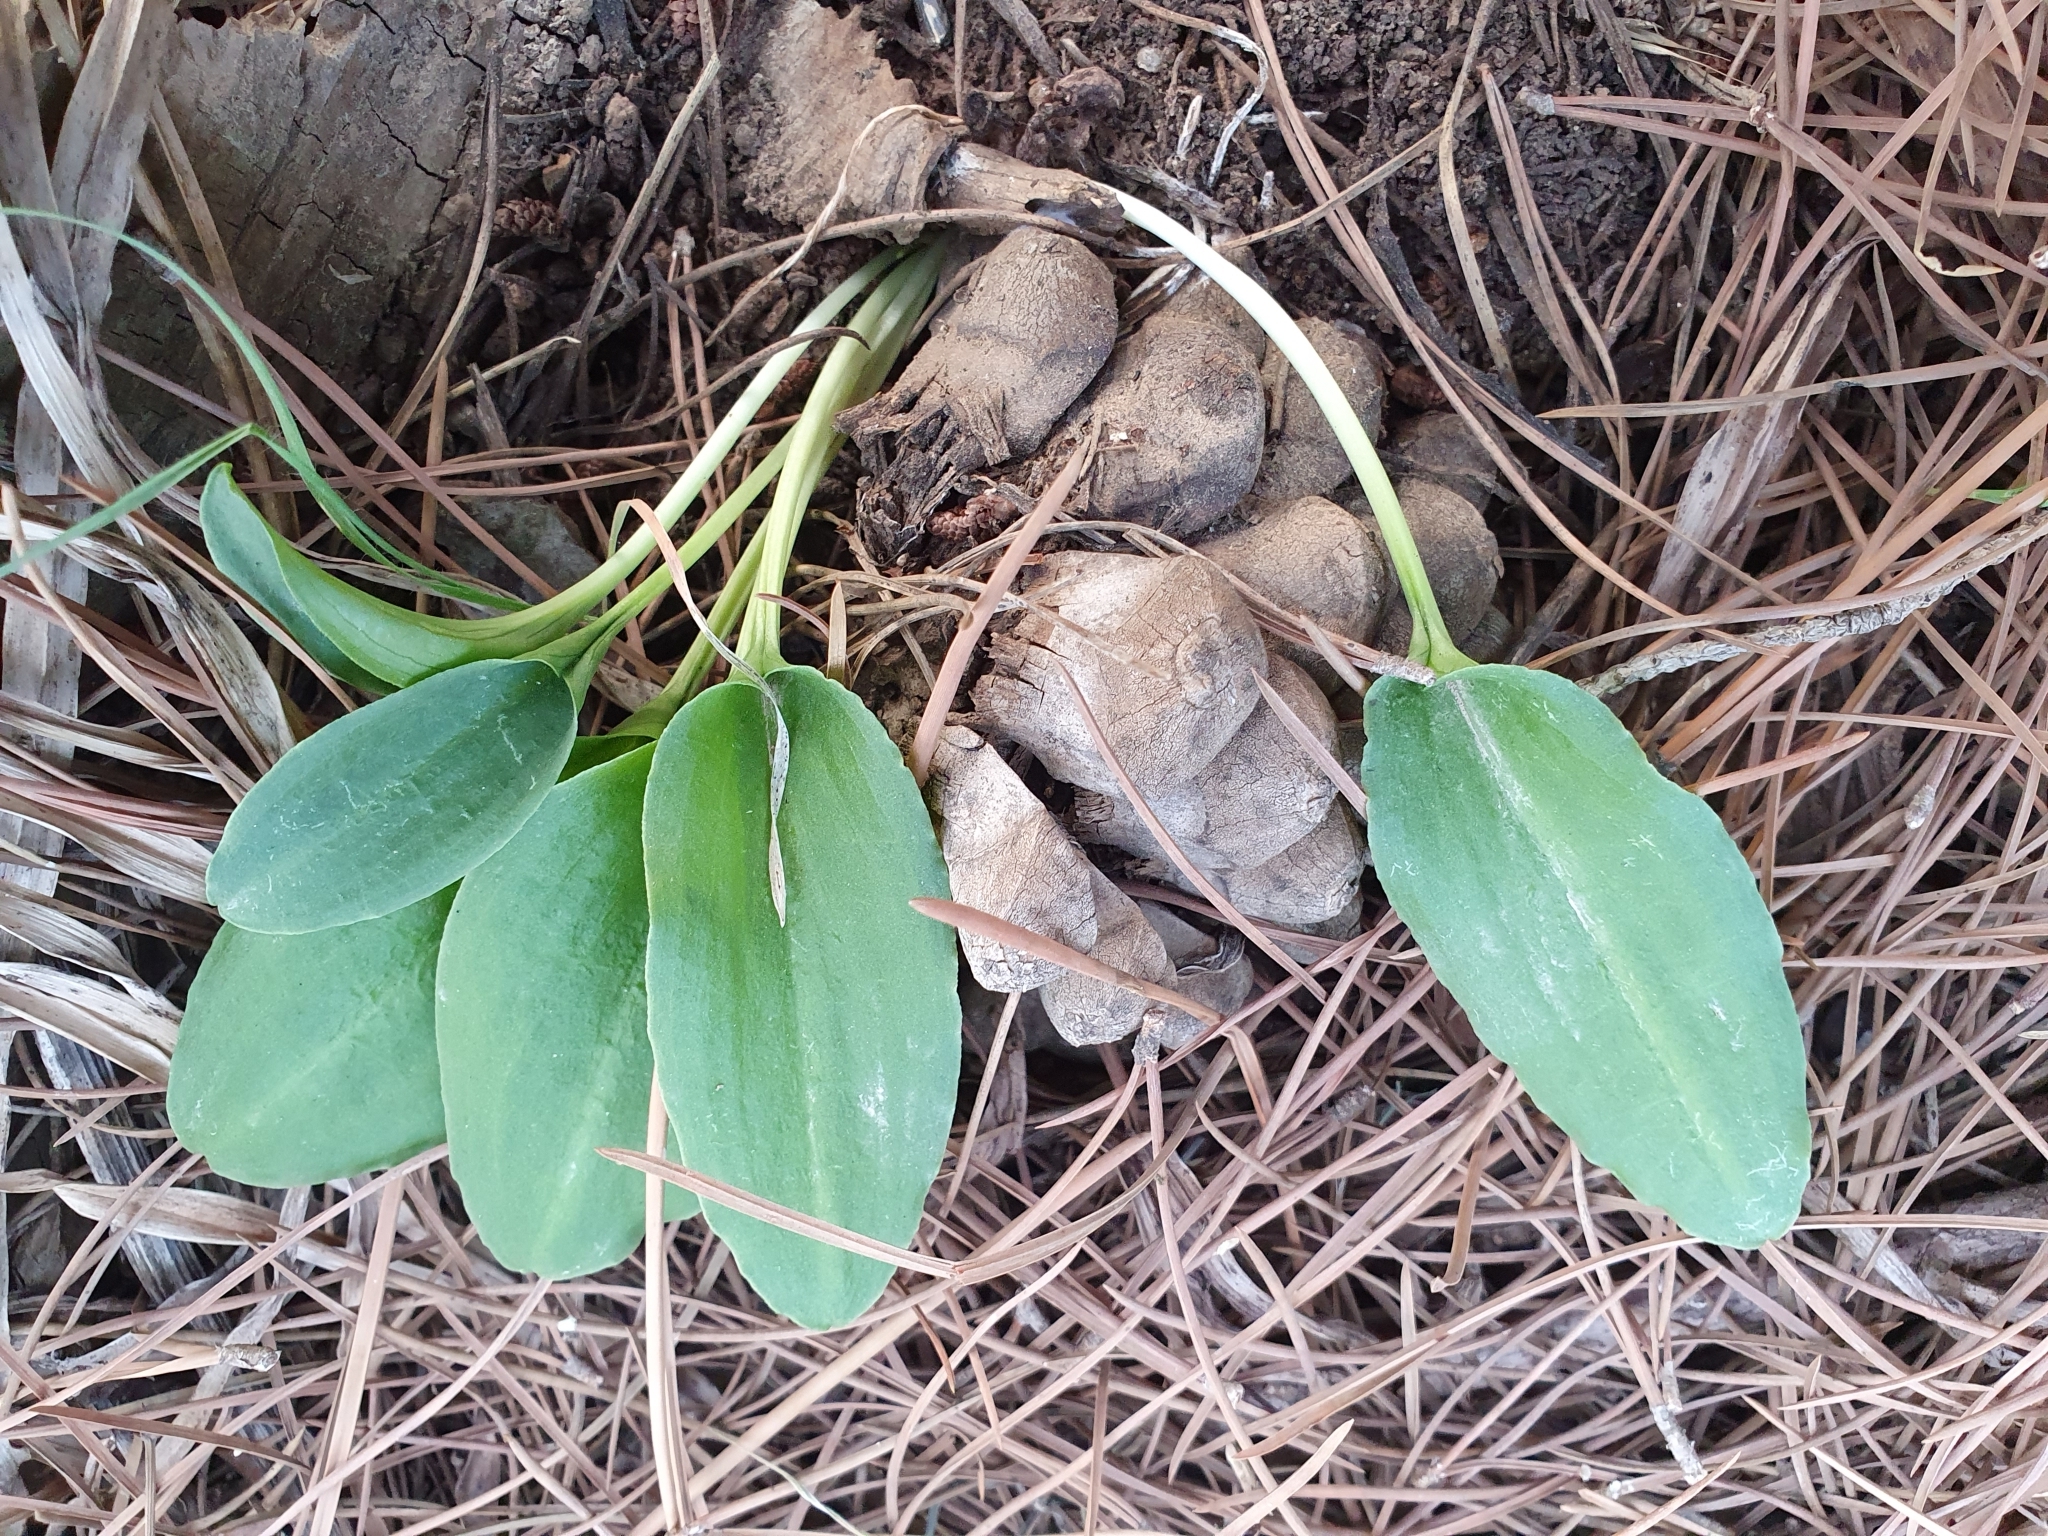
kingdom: Plantae
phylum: Tracheophyta
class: Liliopsida
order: Alismatales
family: Araceae
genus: Ambrosina
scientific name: Ambrosina bassii
